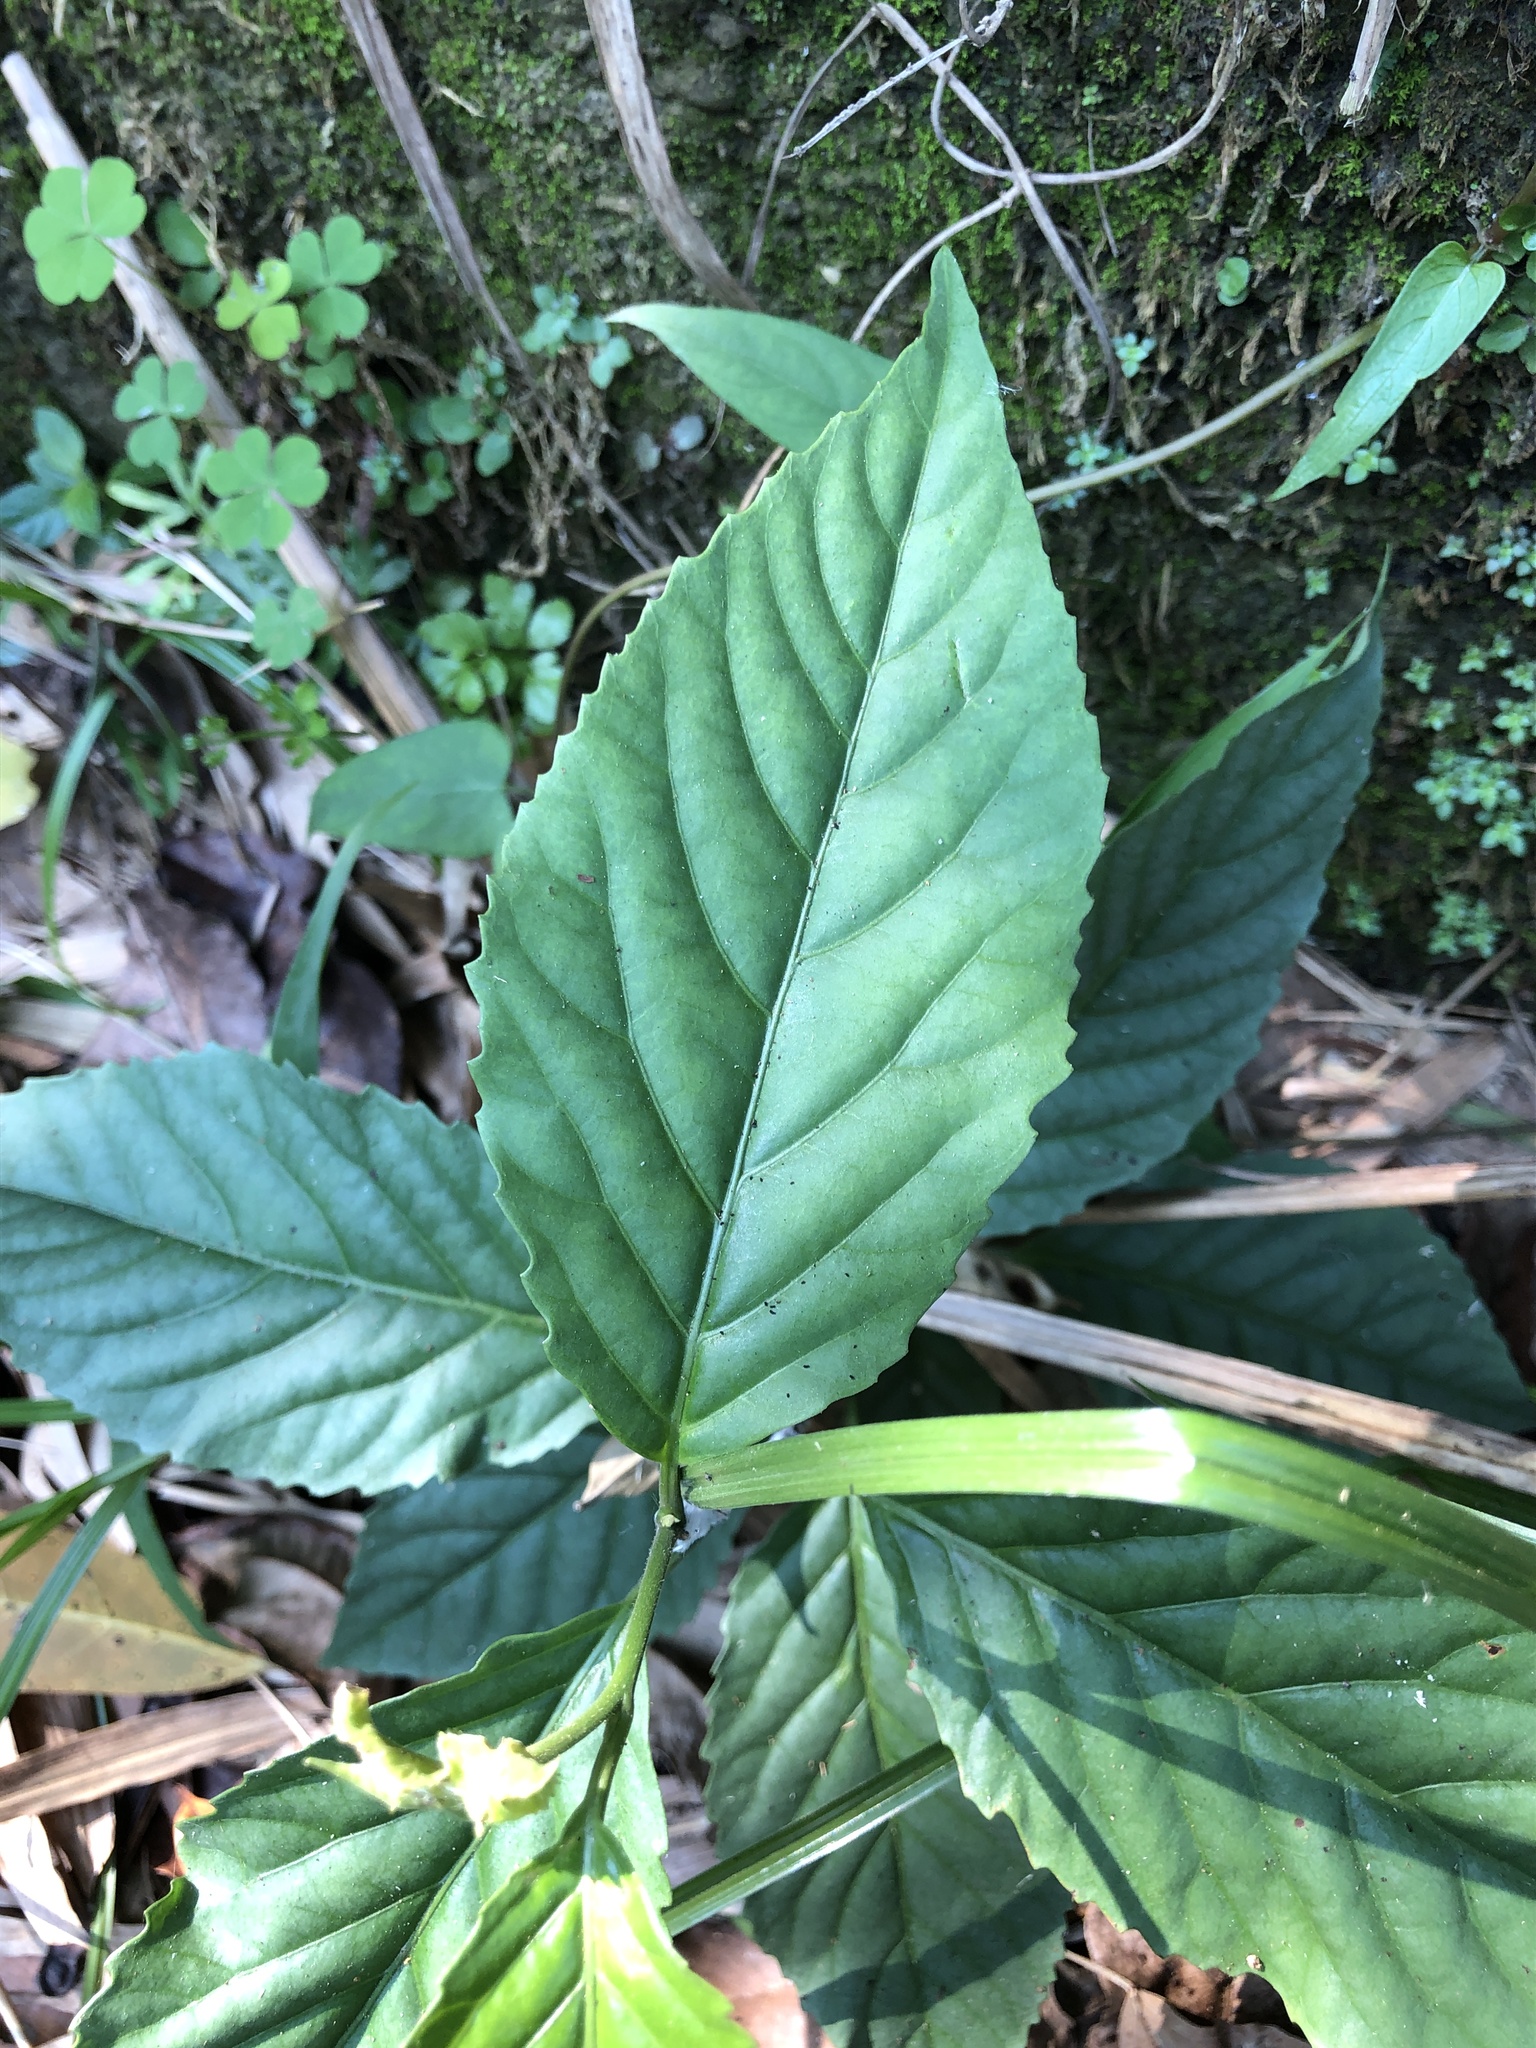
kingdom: Plantae
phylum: Tracheophyta
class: Magnoliopsida
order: Ericales
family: Primulaceae
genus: Maesa
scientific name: Maesa perlaria
